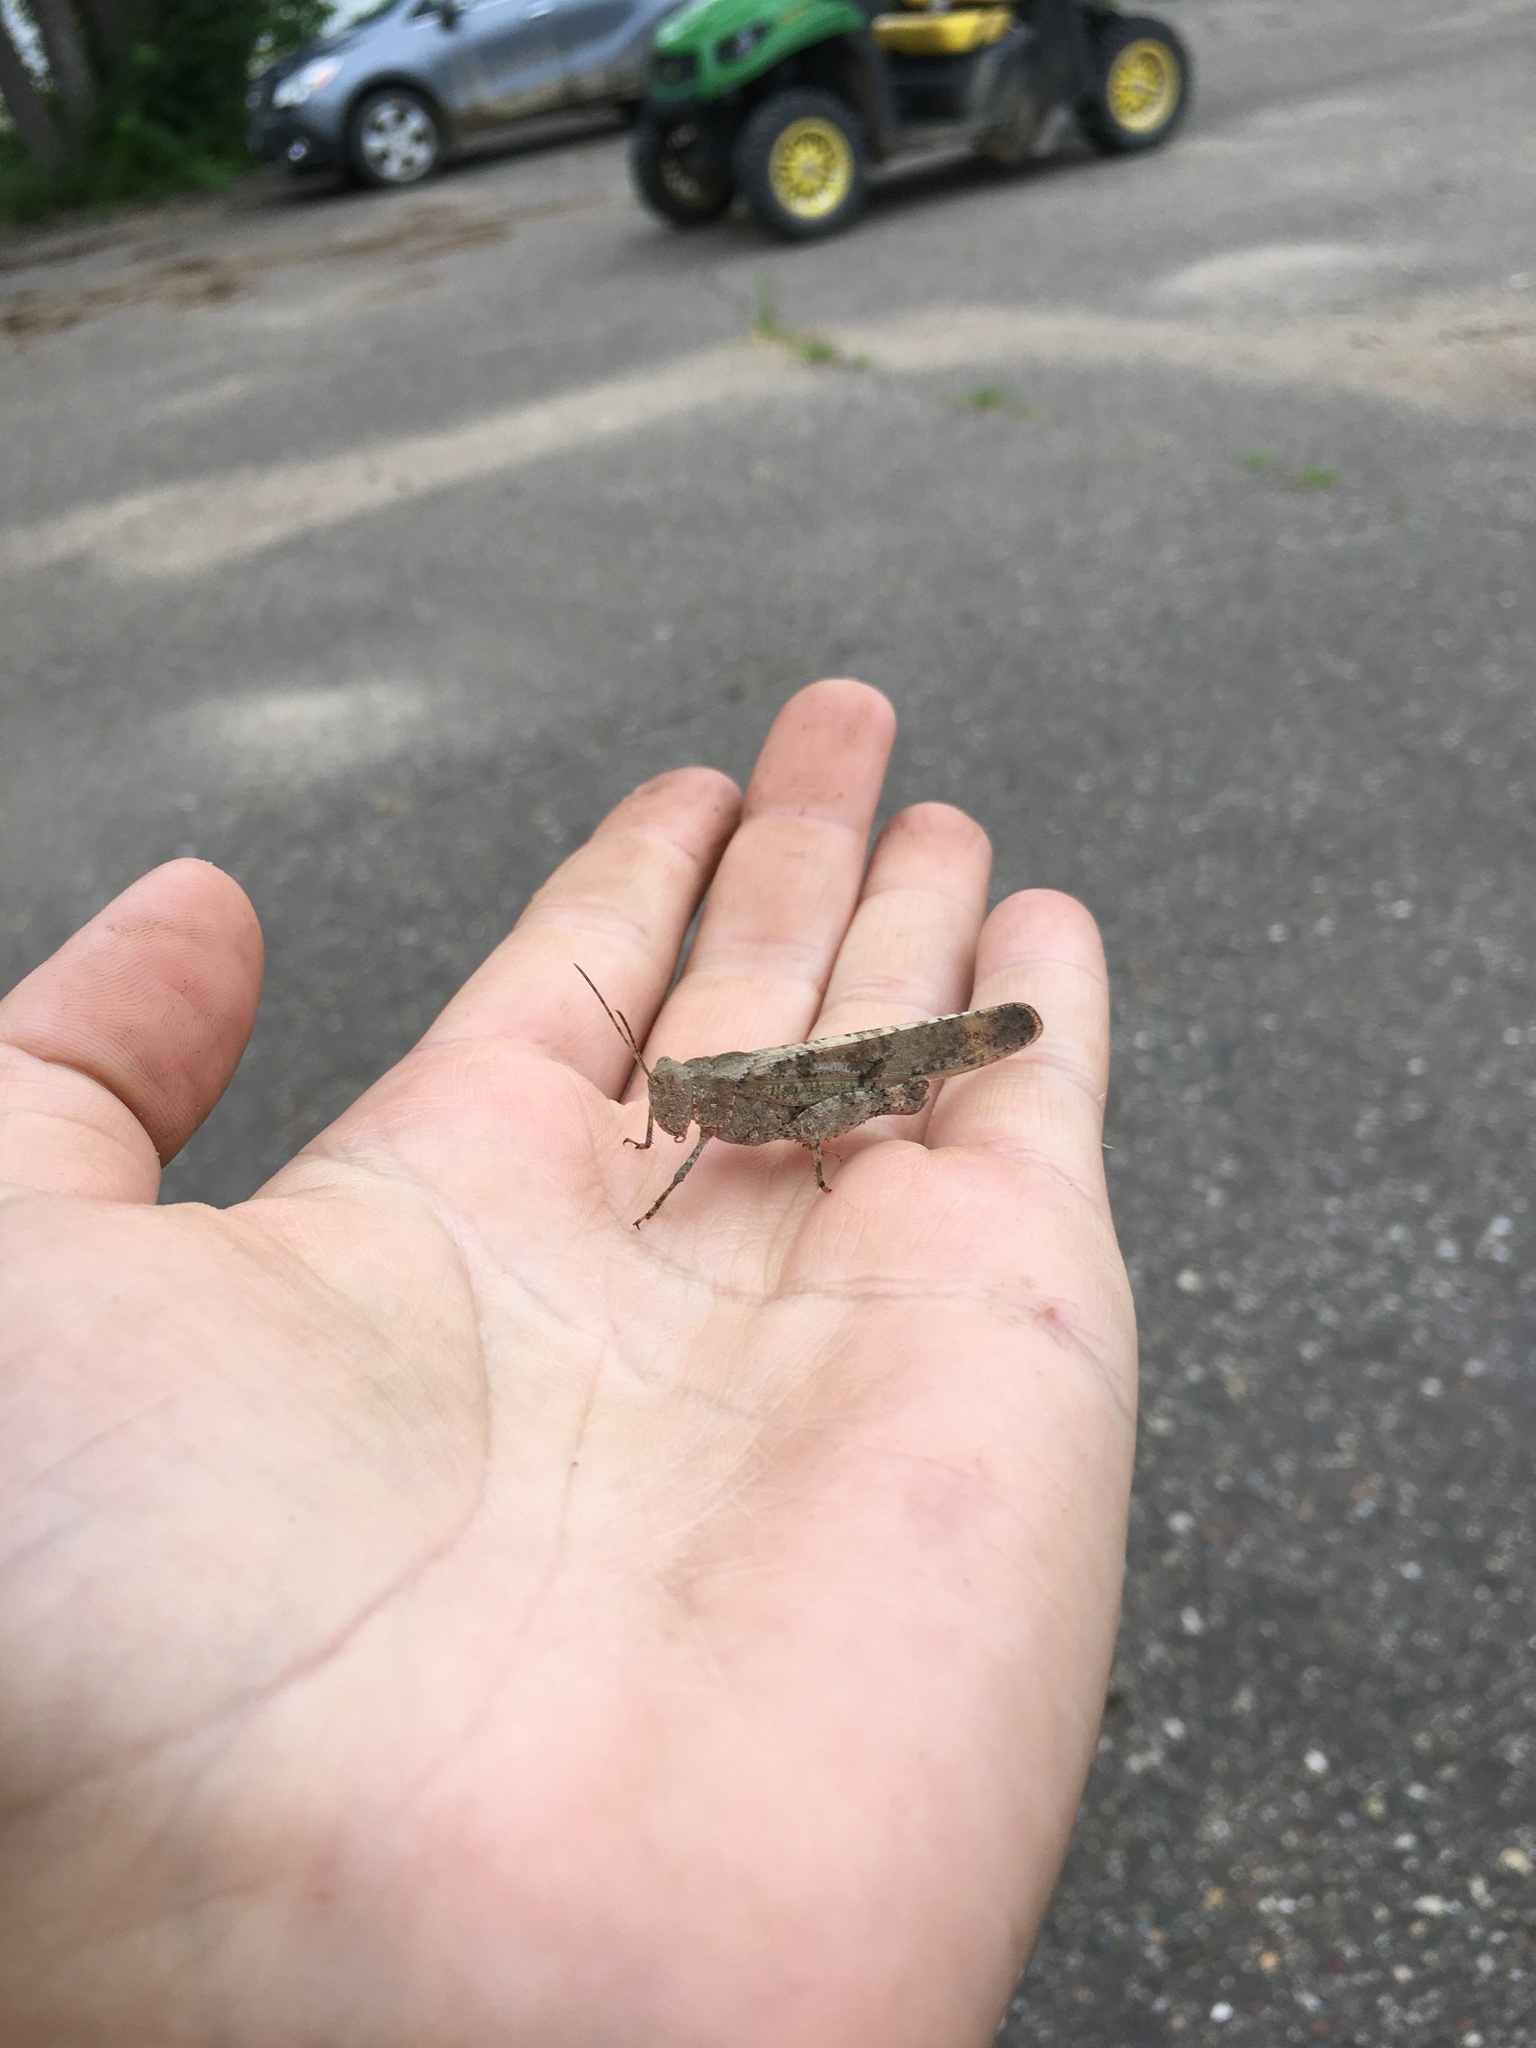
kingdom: Animalia
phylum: Arthropoda
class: Insecta
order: Orthoptera
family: Acrididae
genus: Dissosteira
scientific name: Dissosteira carolina
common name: Carolina grasshopper
